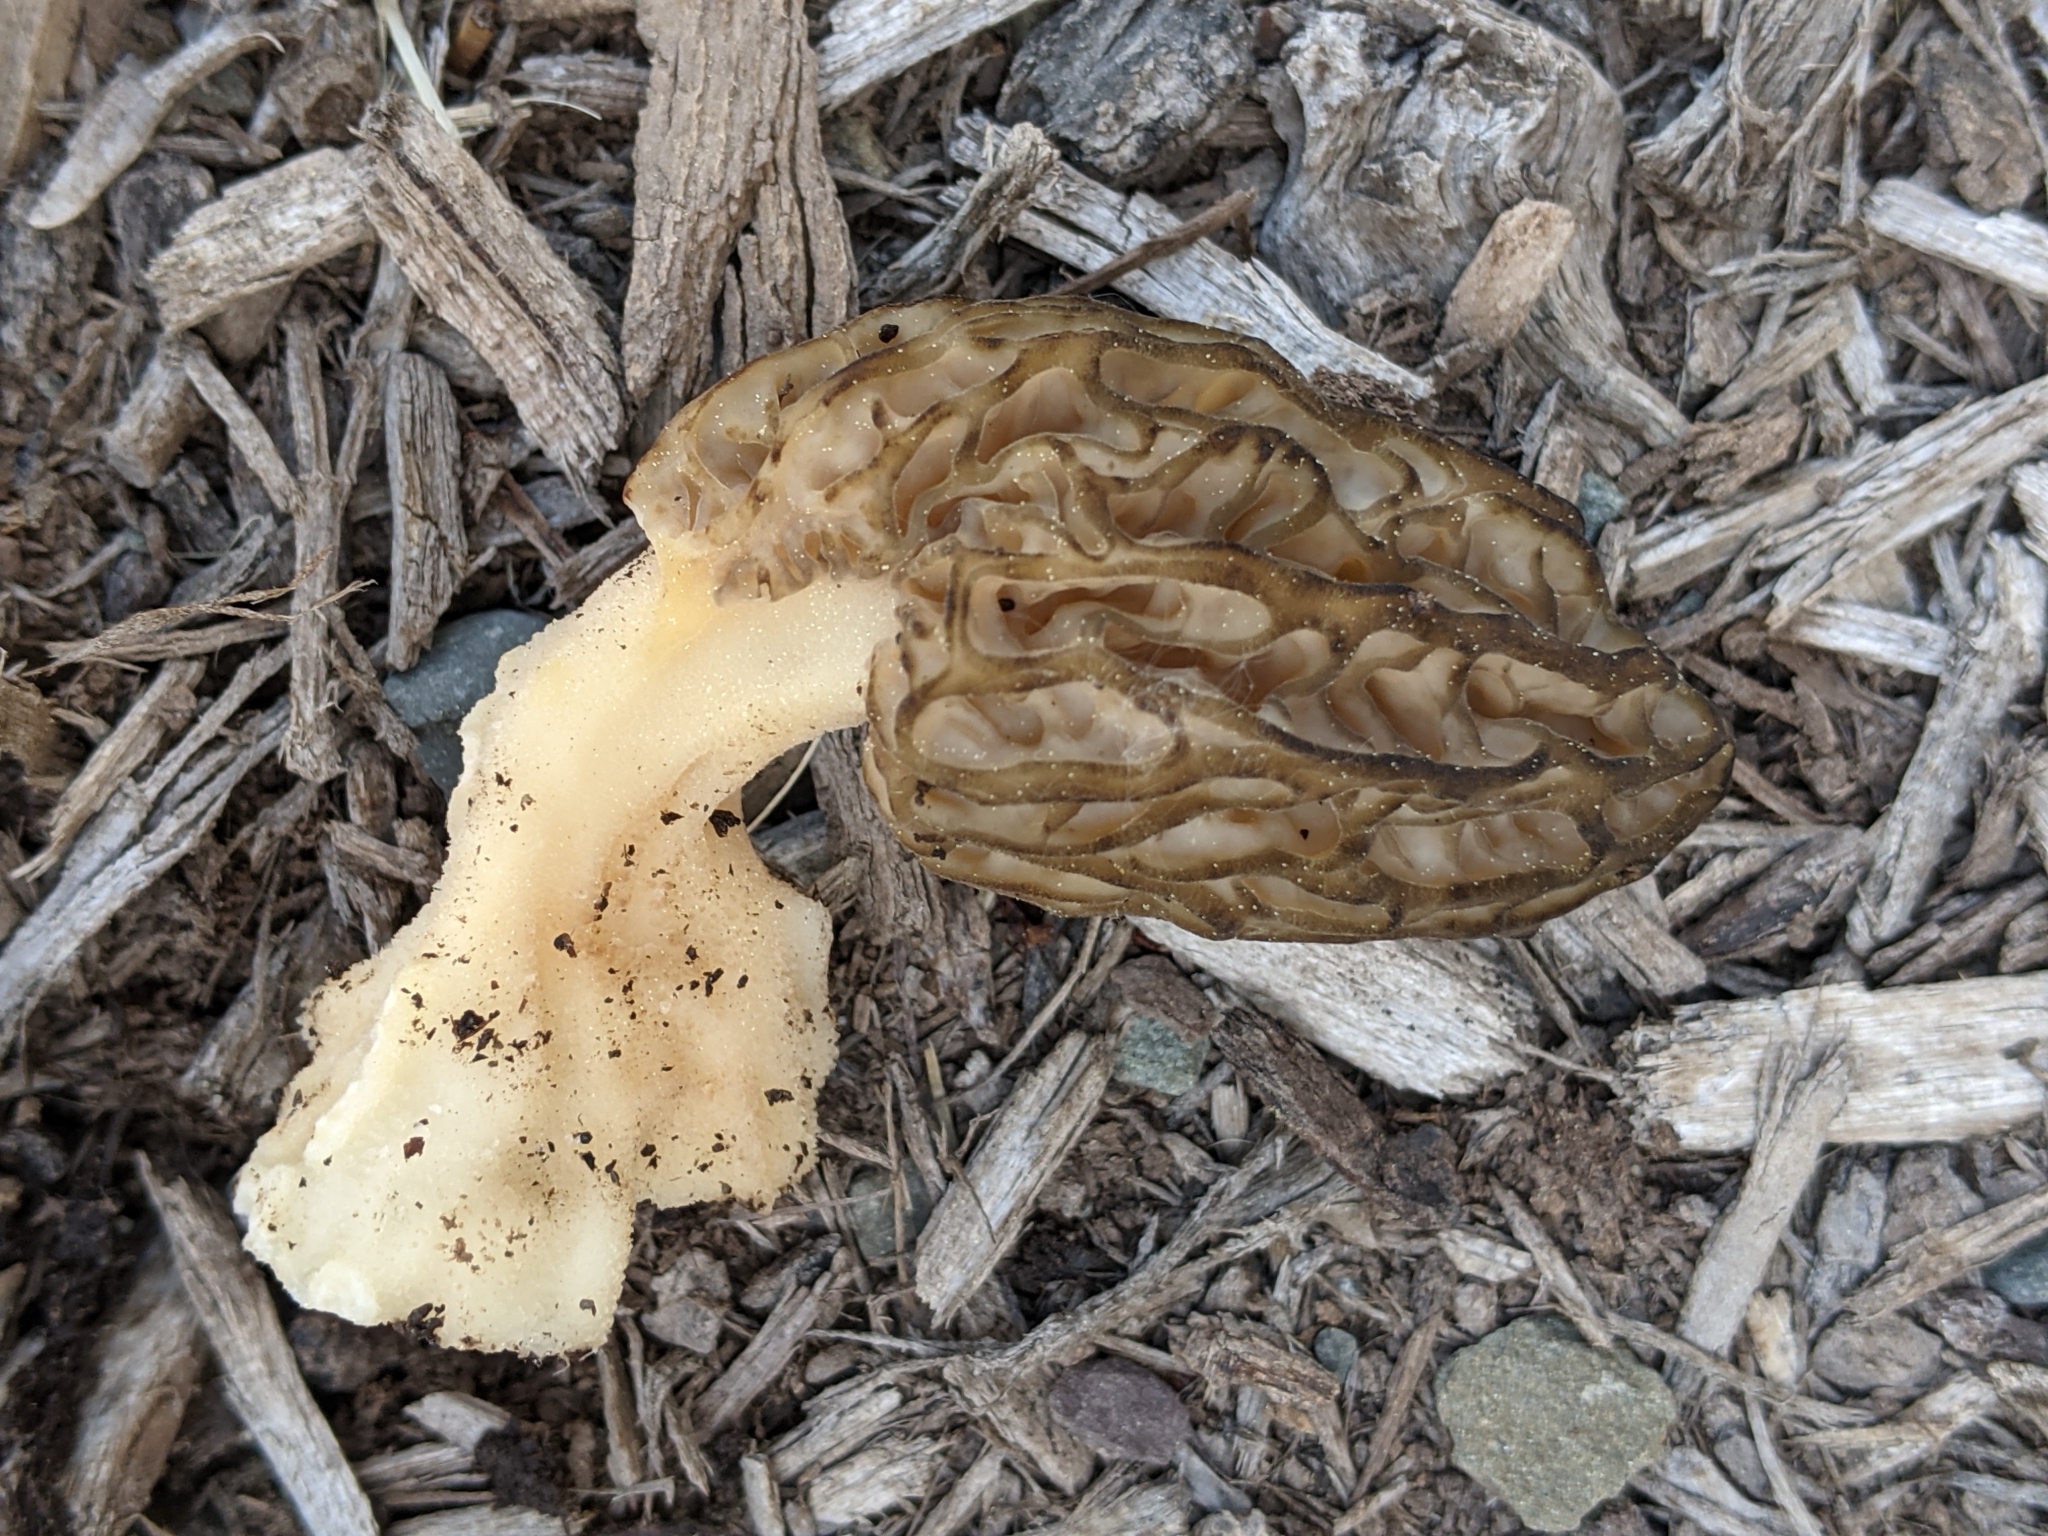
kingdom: Fungi
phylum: Ascomycota
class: Pezizomycetes
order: Pezizales
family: Morchellaceae
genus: Morchella
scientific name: Morchella importuna
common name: Landscaping black morel
